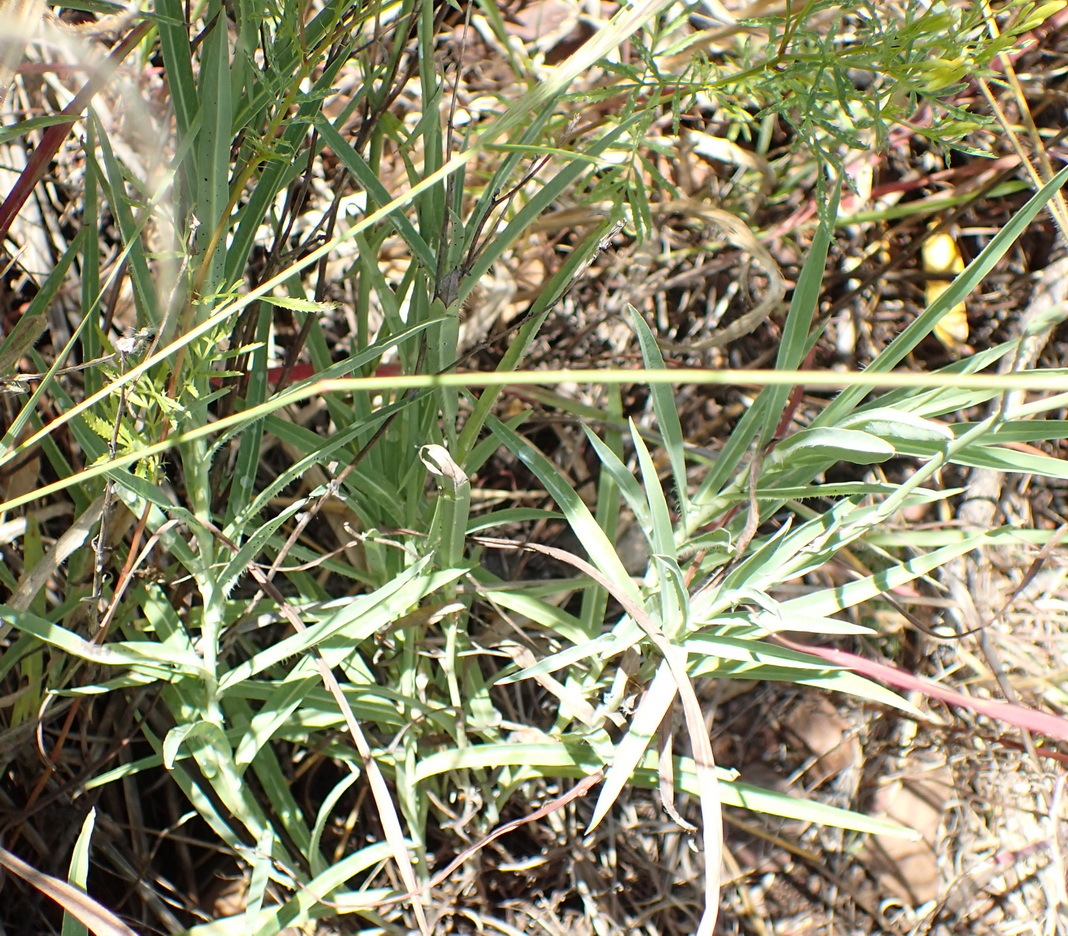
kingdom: Plantae
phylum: Tracheophyta
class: Magnoliopsida
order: Asterales
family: Asteraceae
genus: Lactuca
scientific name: Lactuca inermis
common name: Wild lettuce
